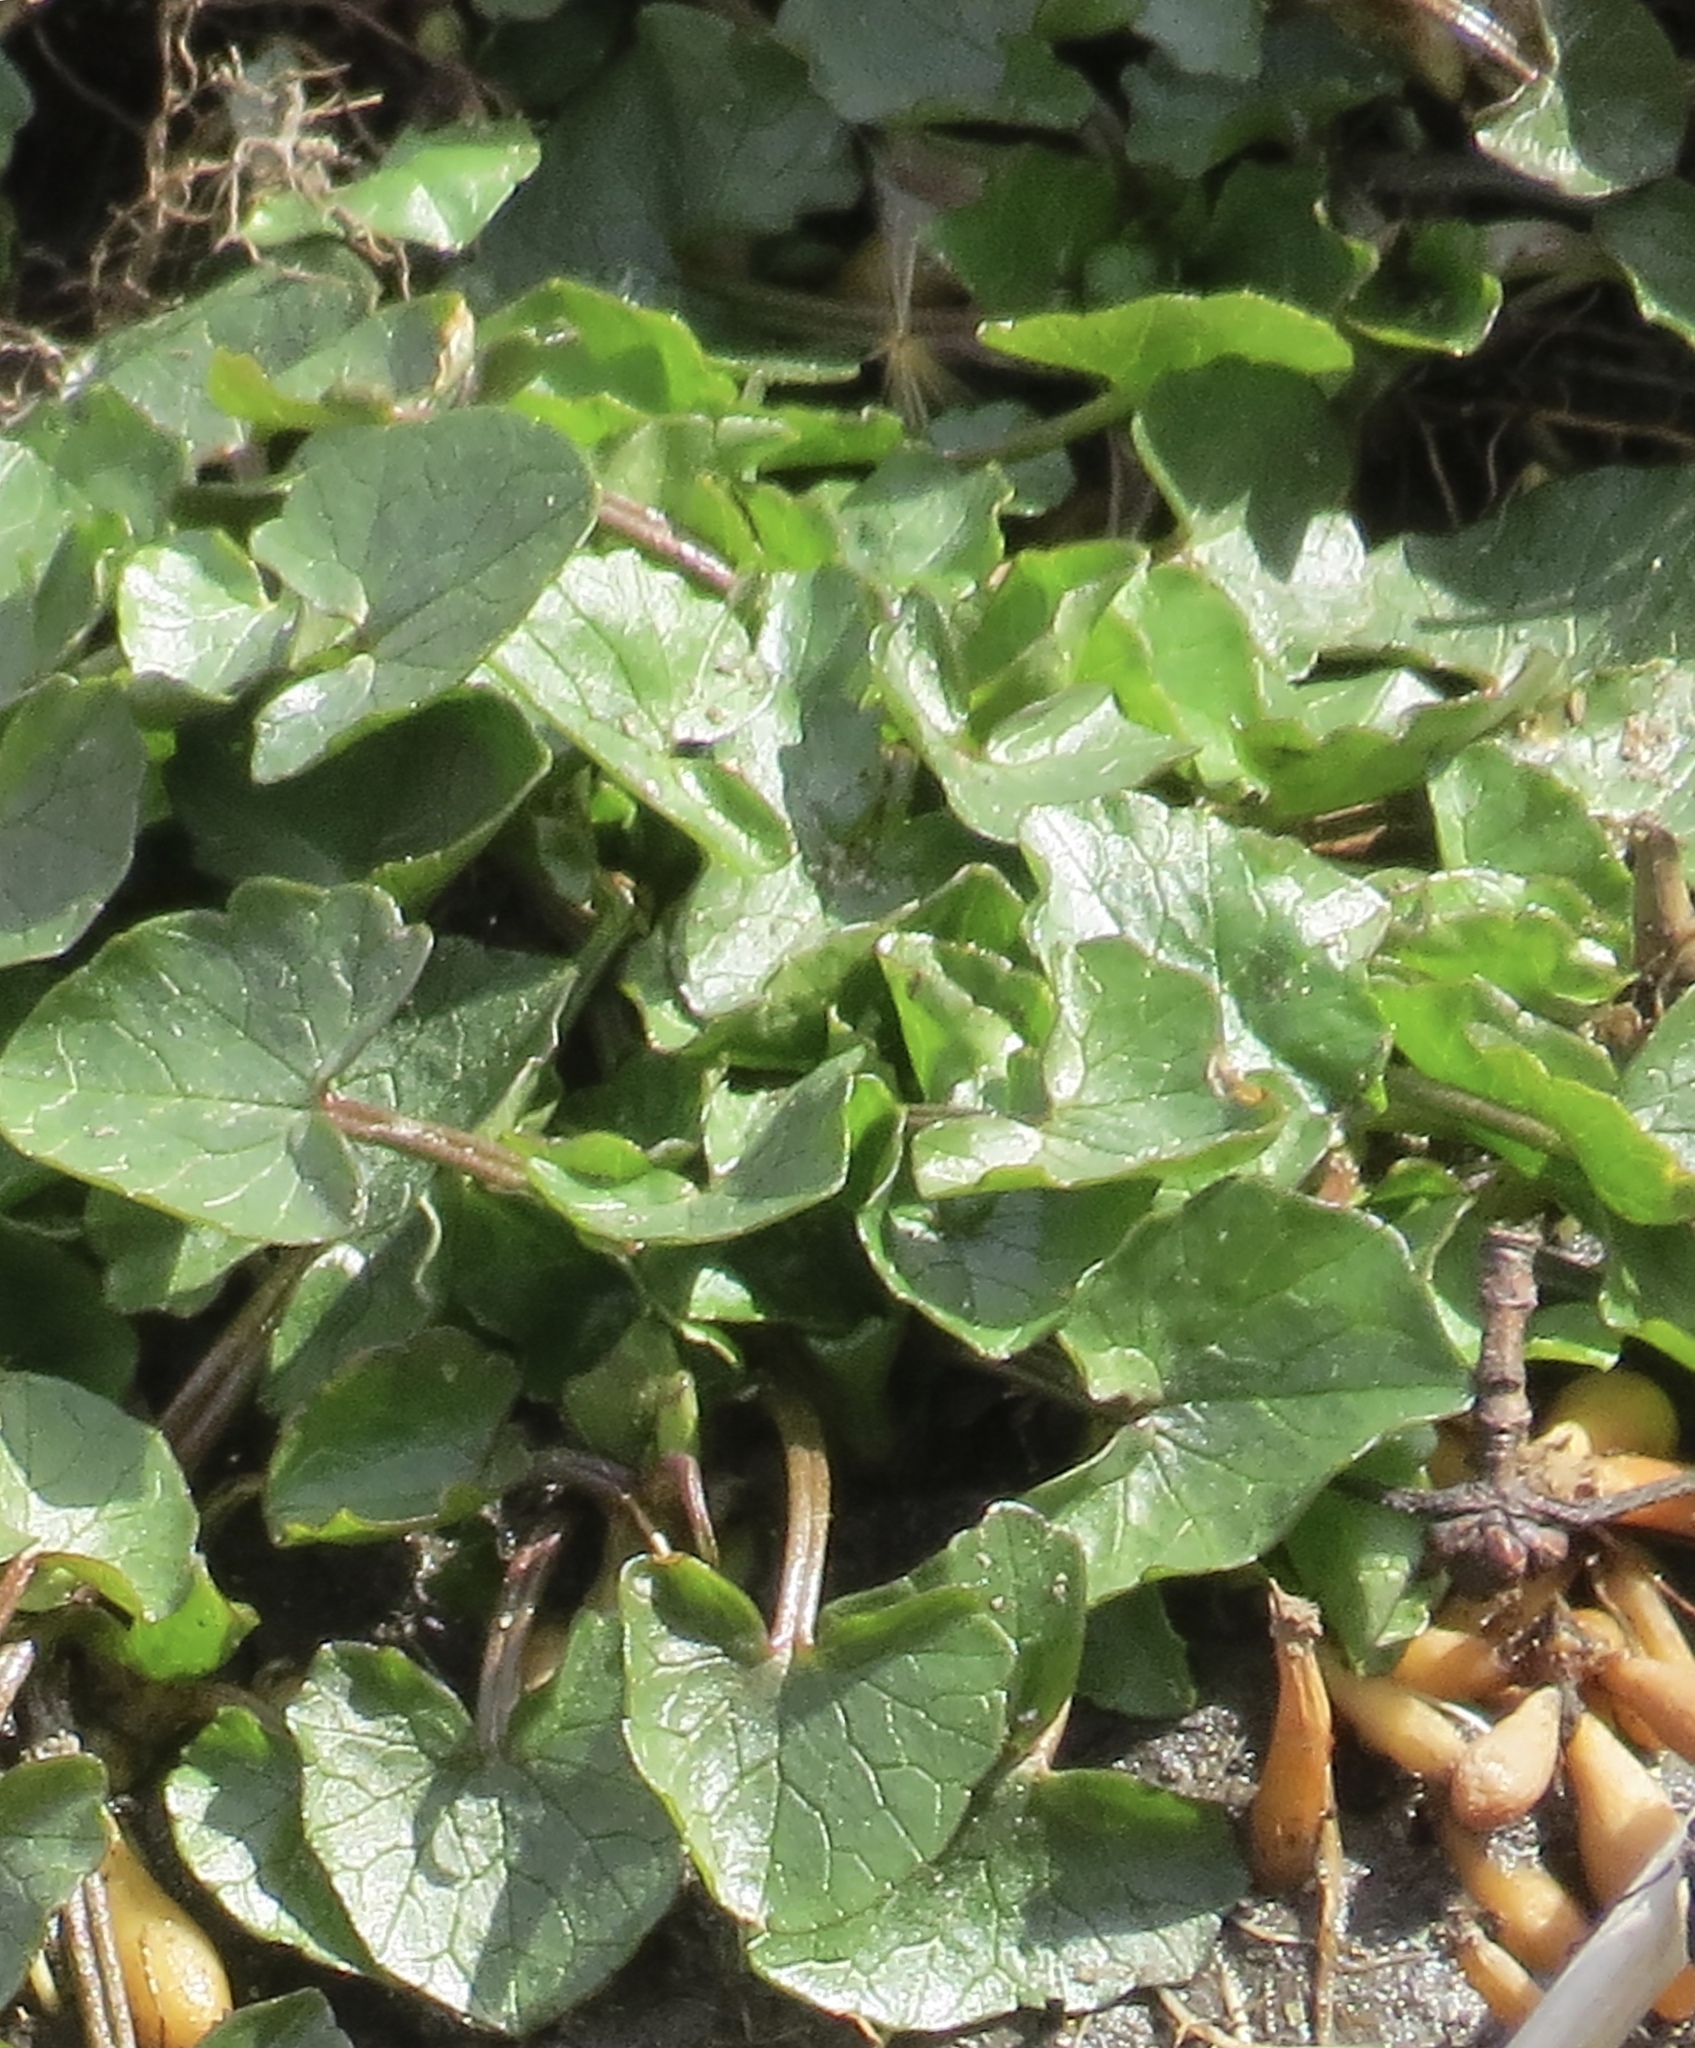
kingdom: Plantae
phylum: Tracheophyta
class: Magnoliopsida
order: Ranunculales
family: Ranunculaceae
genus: Ficaria
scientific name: Ficaria verna
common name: Lesser celandine
